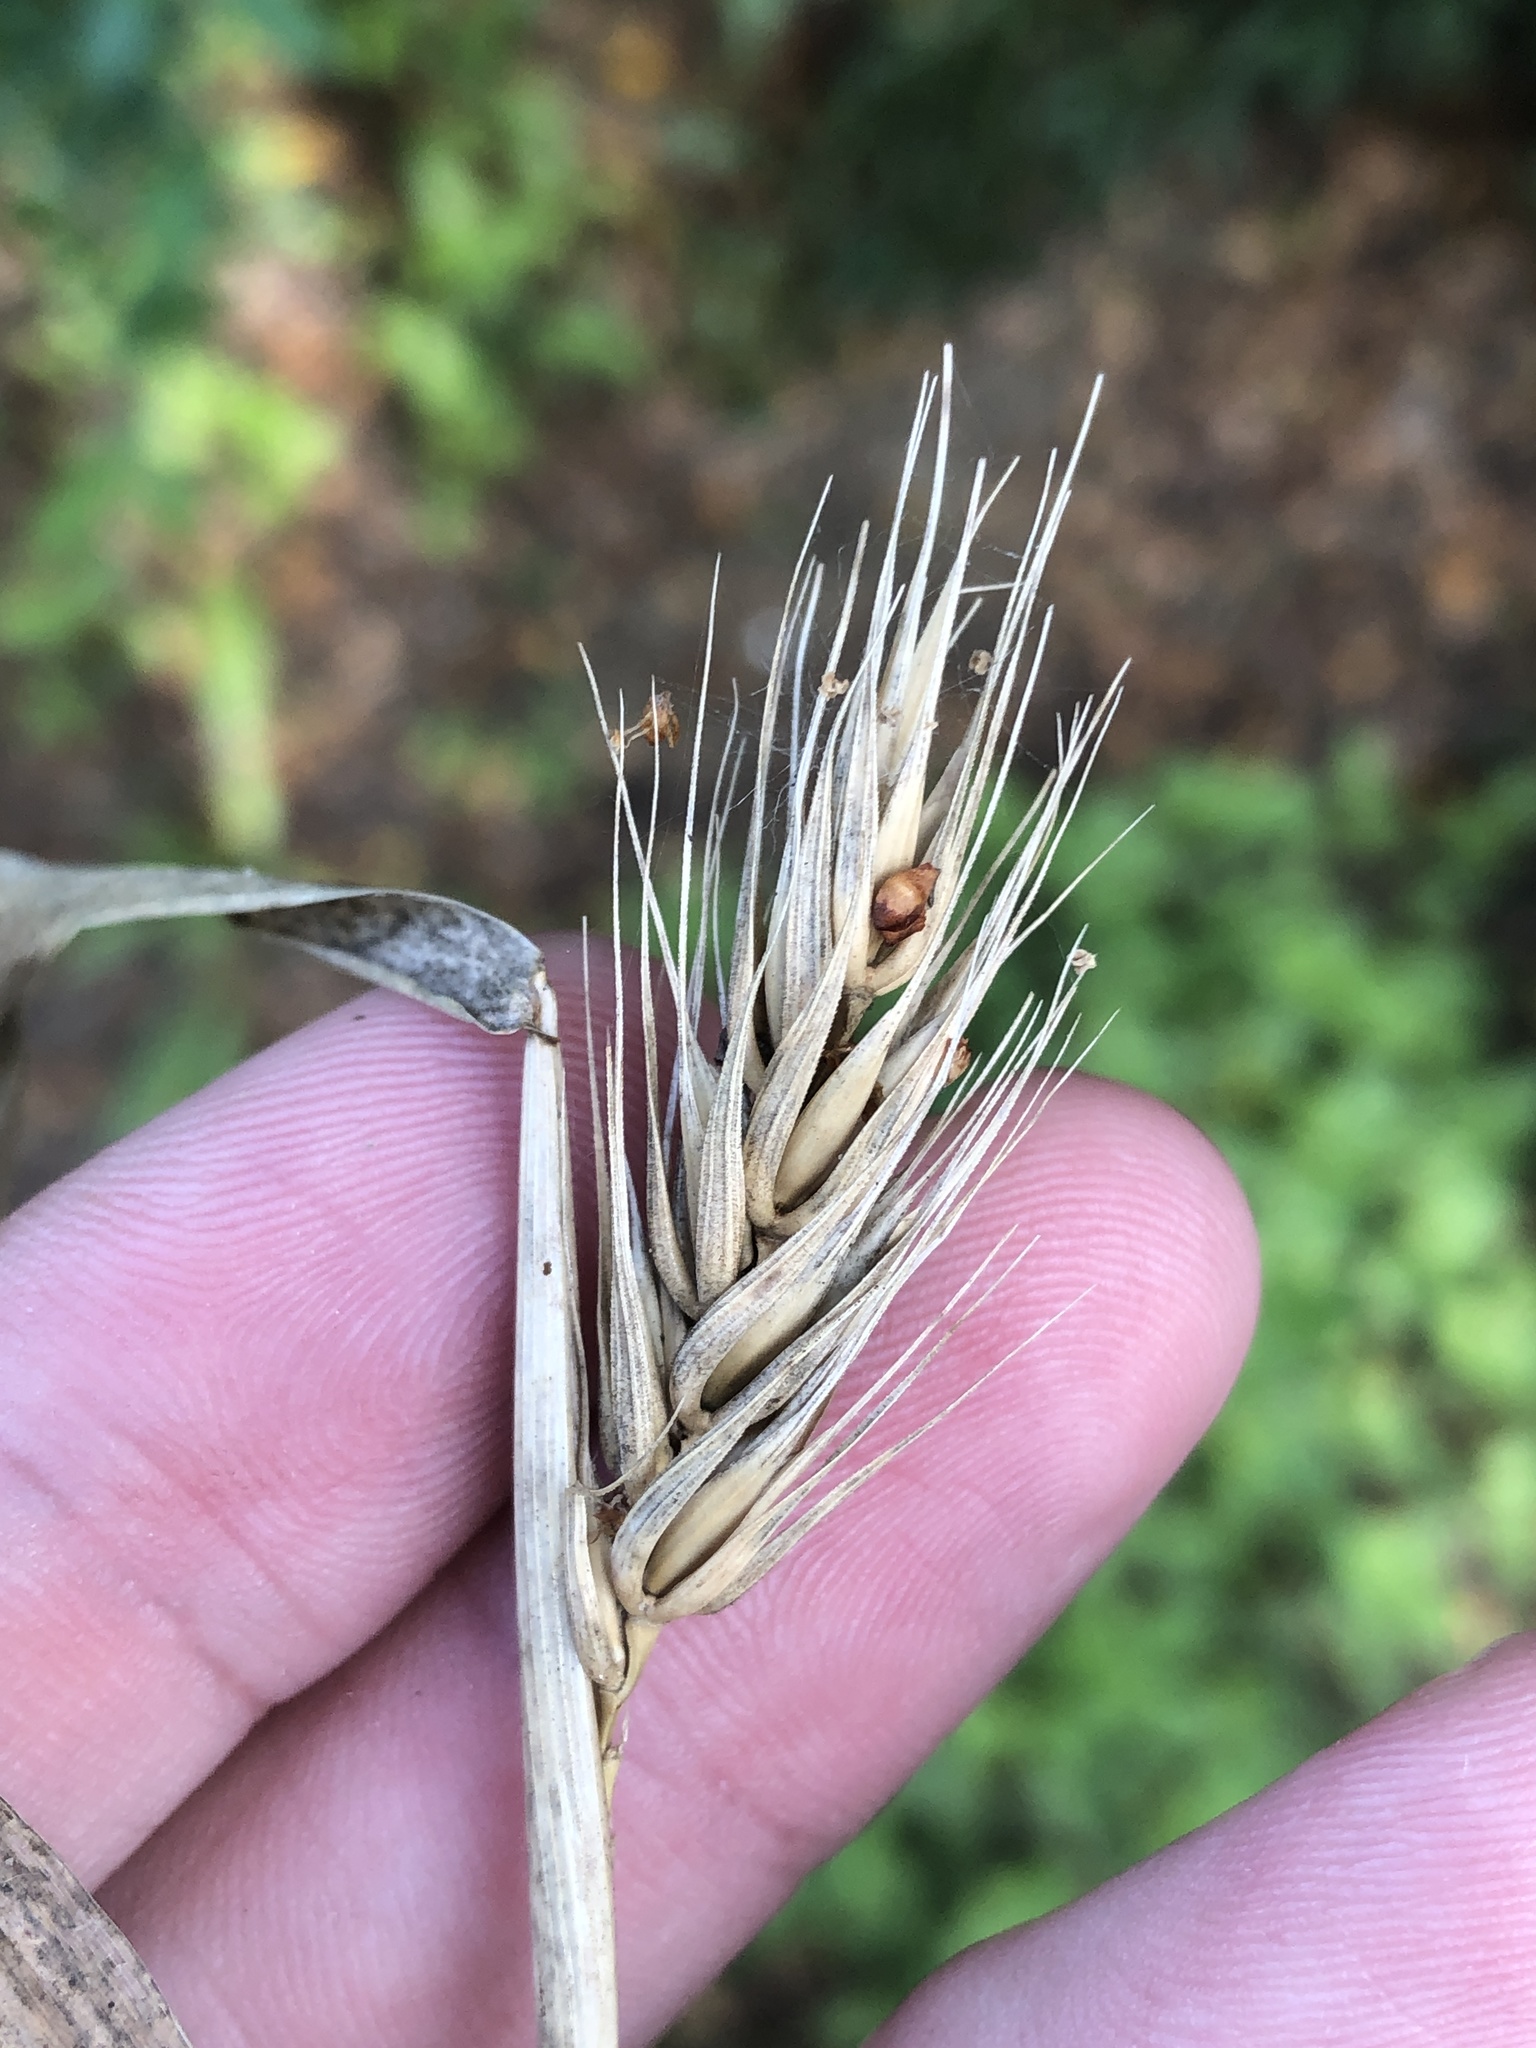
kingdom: Plantae
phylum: Tracheophyta
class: Liliopsida
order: Poales
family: Poaceae
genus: Elymus
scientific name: Elymus virginicus
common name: Common eastern wildrye
